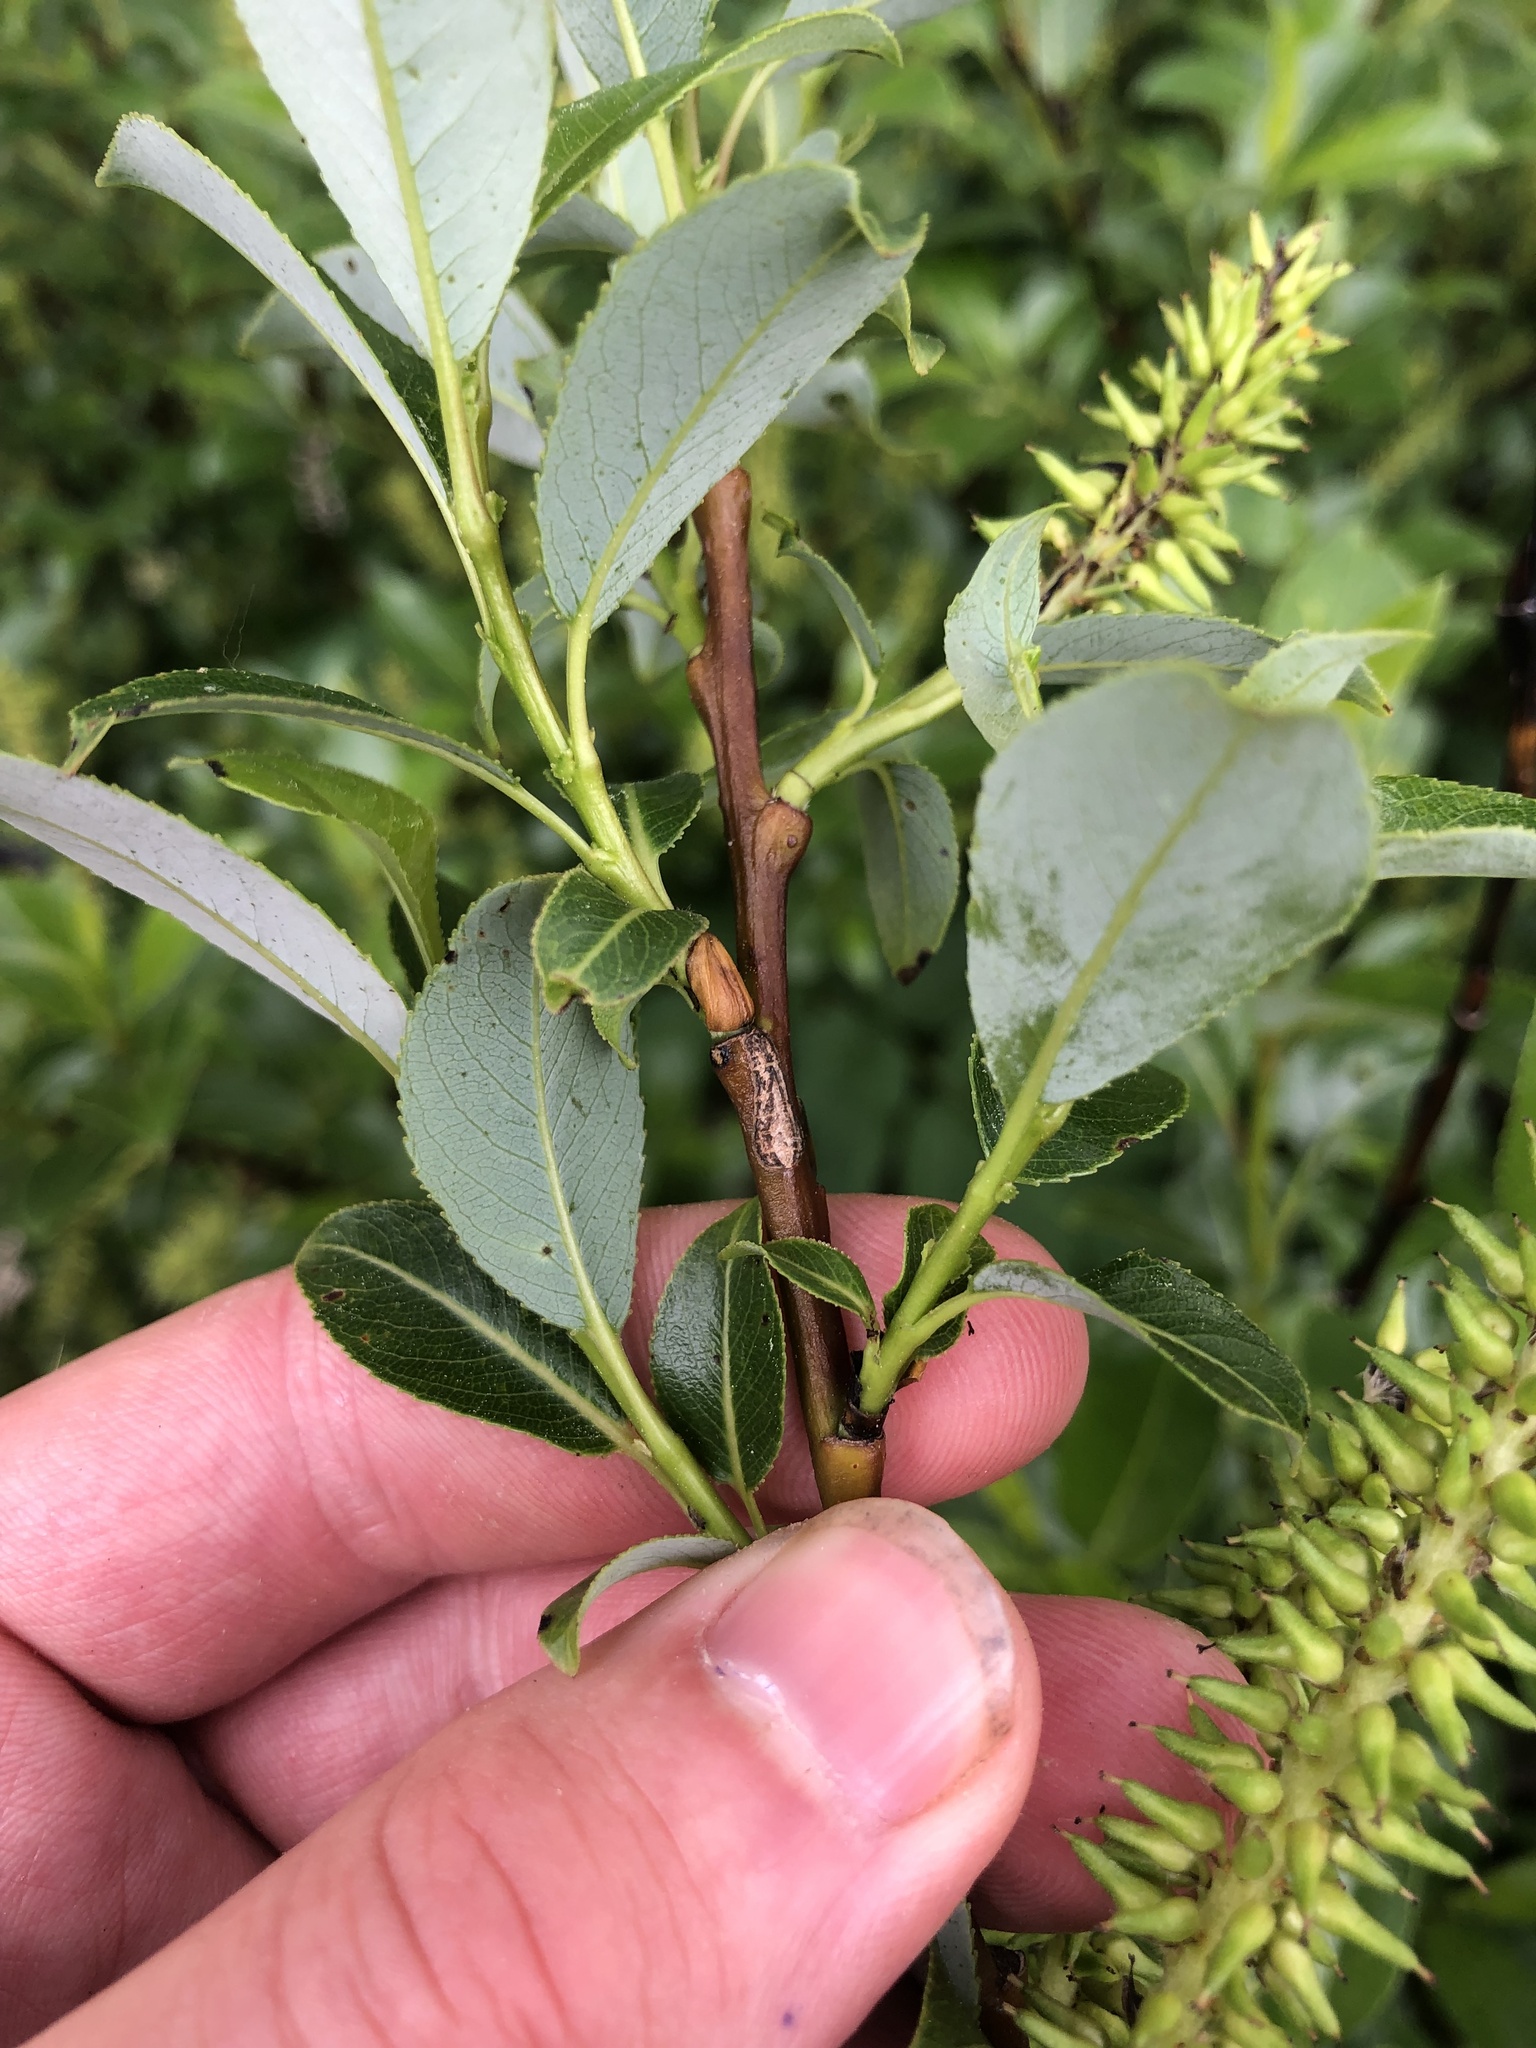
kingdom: Plantae
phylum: Tracheophyta
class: Magnoliopsida
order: Malpighiales
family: Salicaceae
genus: Salix
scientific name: Salix glabra
